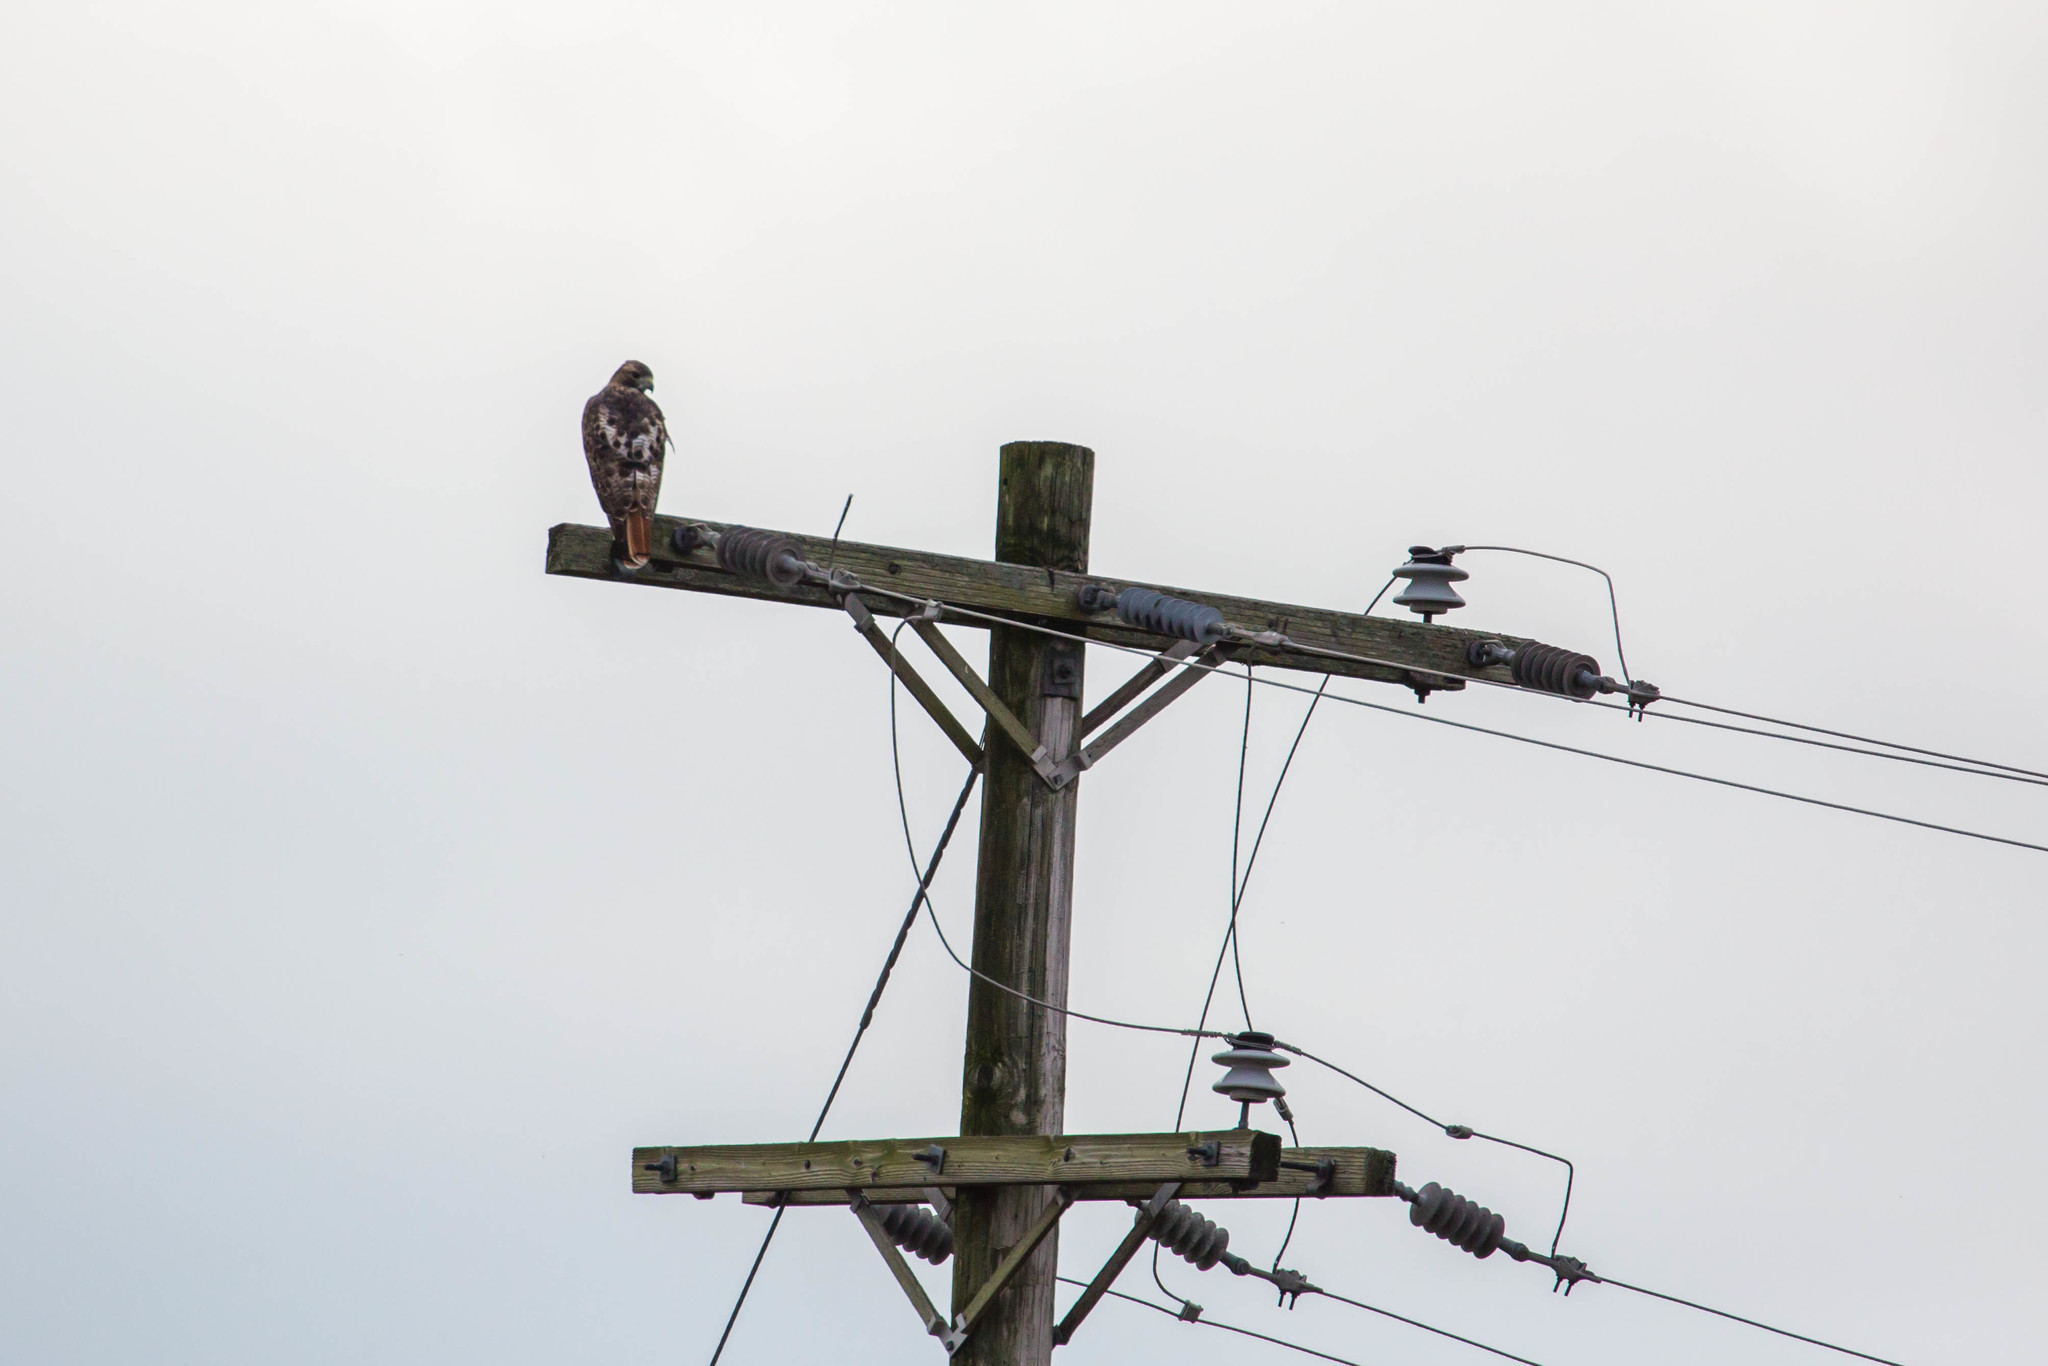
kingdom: Animalia
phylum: Chordata
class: Aves
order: Accipitriformes
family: Accipitridae
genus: Buteo
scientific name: Buteo jamaicensis
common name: Red-tailed hawk
